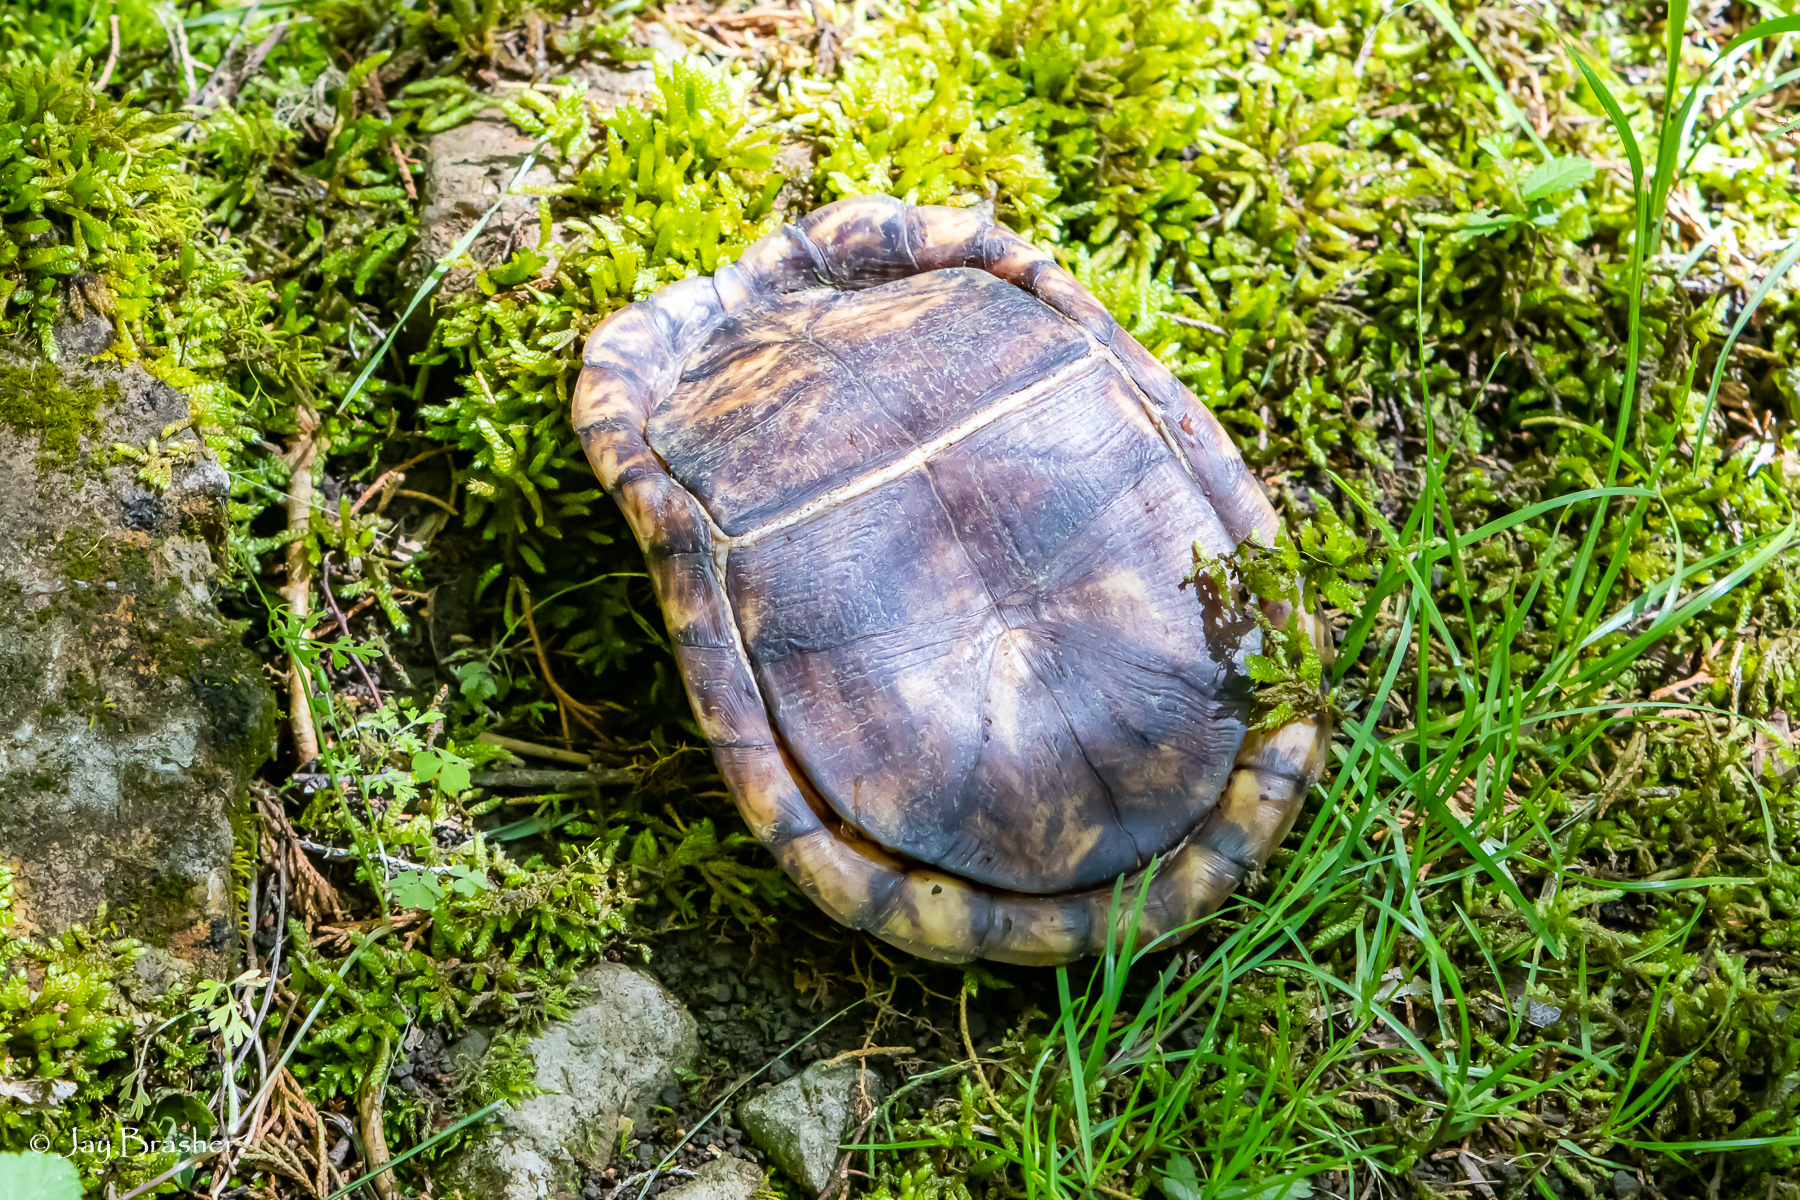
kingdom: Animalia
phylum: Chordata
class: Testudines
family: Emydidae
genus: Terrapene
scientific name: Terrapene carolina
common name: Common box turtle
